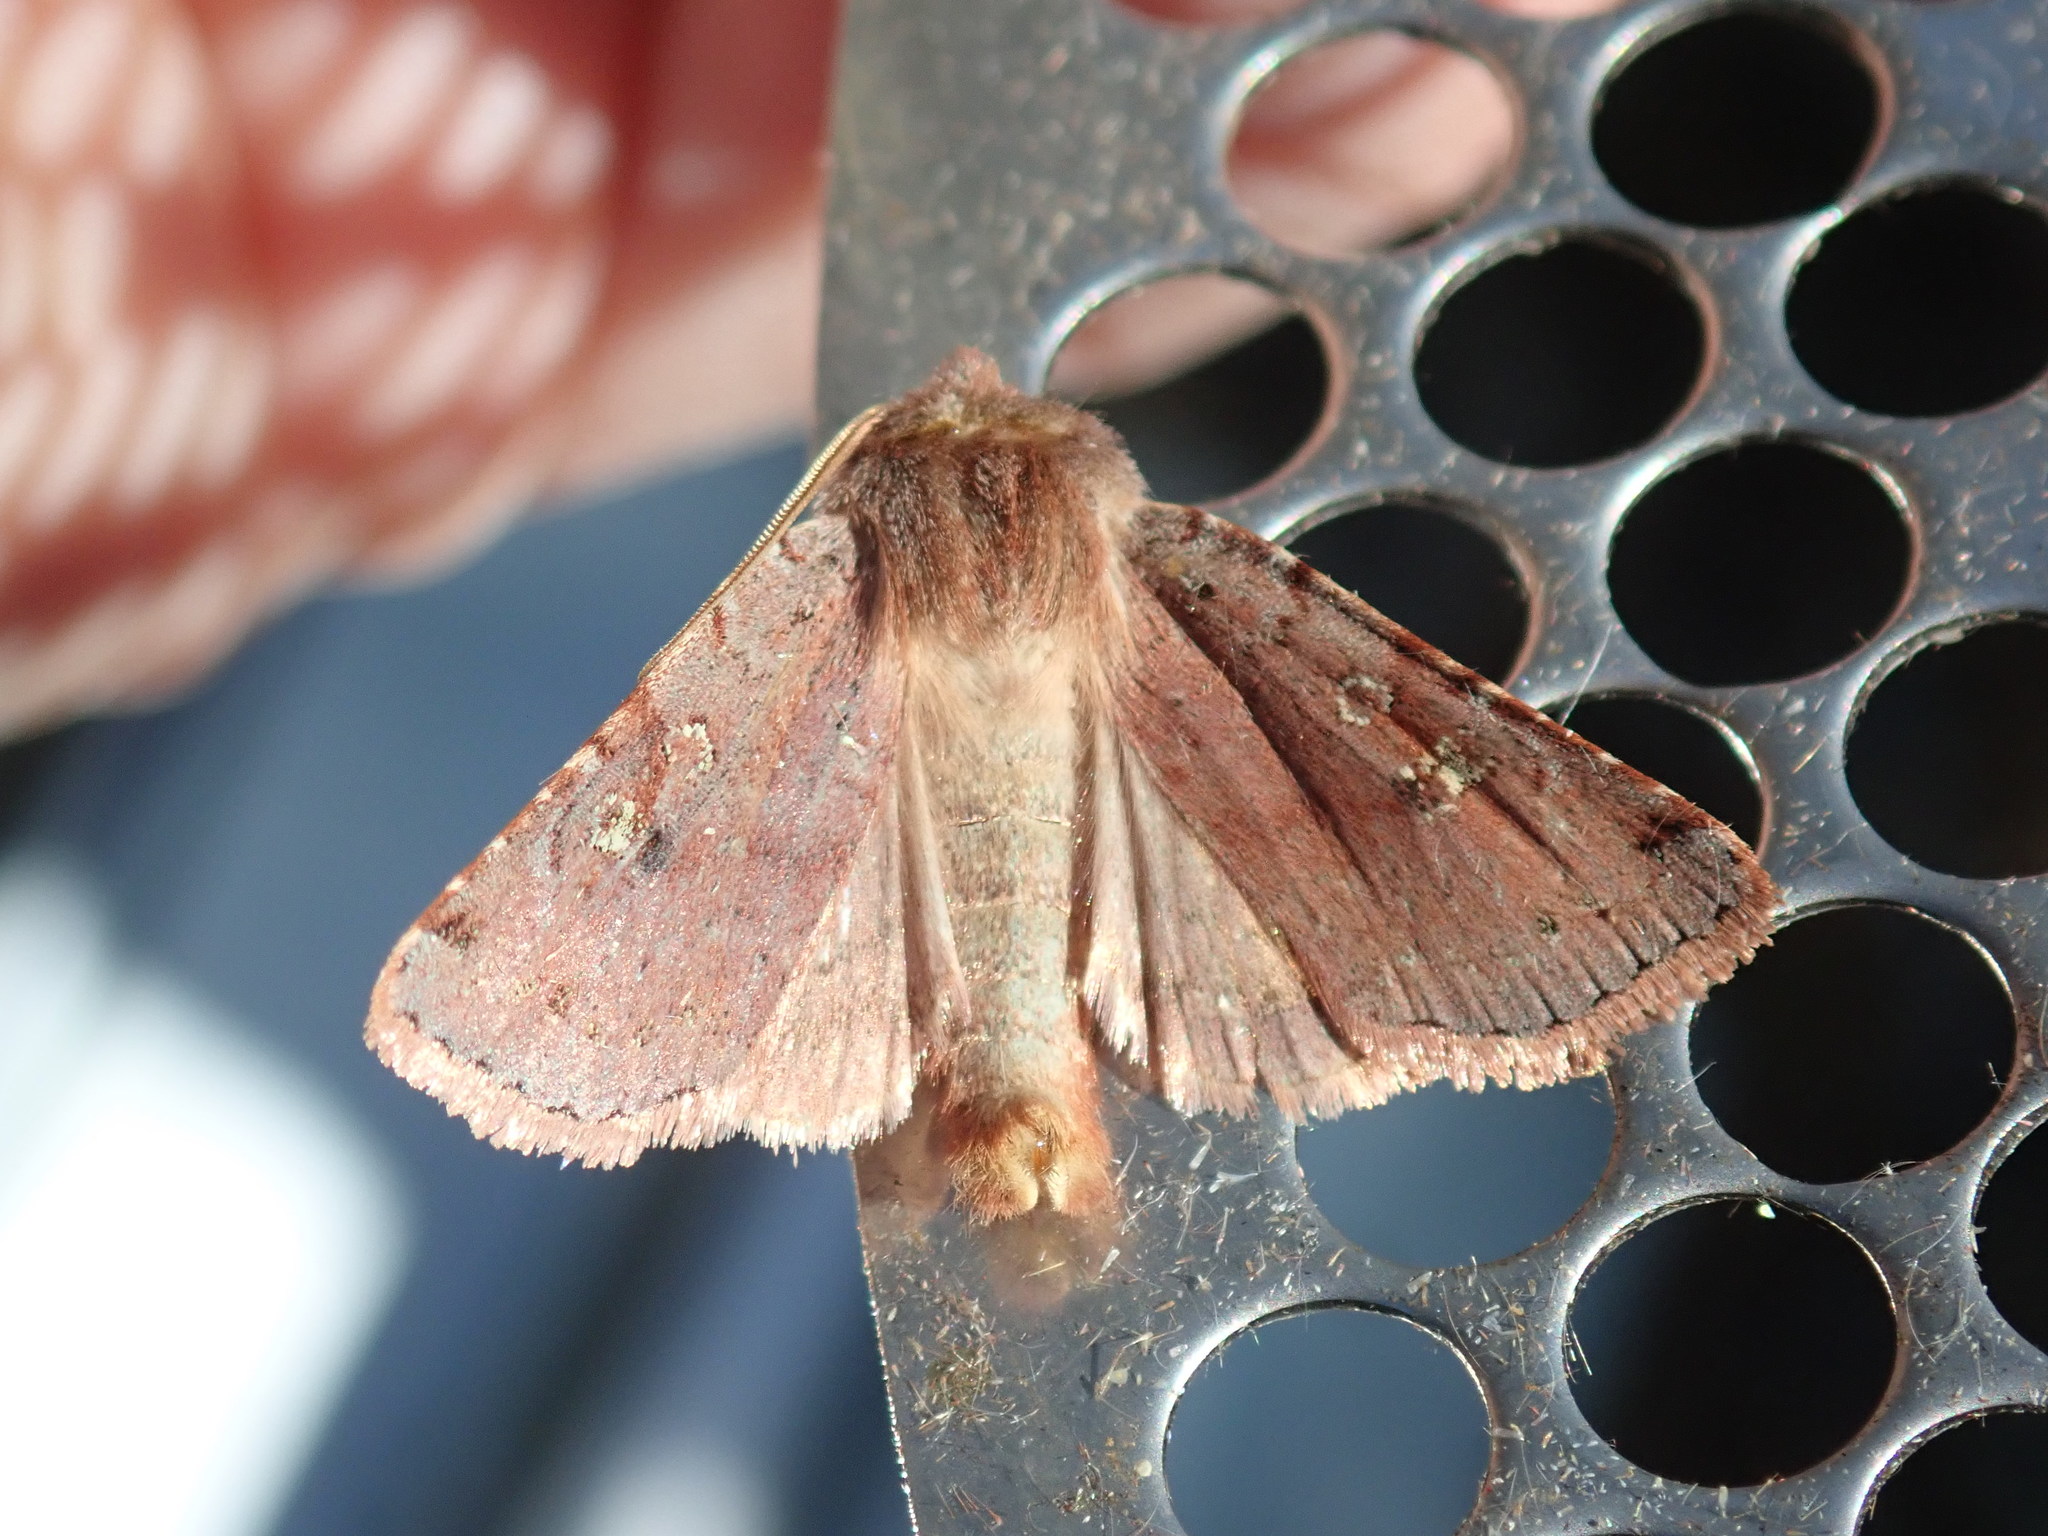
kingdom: Animalia
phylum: Arthropoda
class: Insecta
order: Lepidoptera
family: Noctuidae
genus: Cerastis
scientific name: Cerastis fishii
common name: Fish's dart
